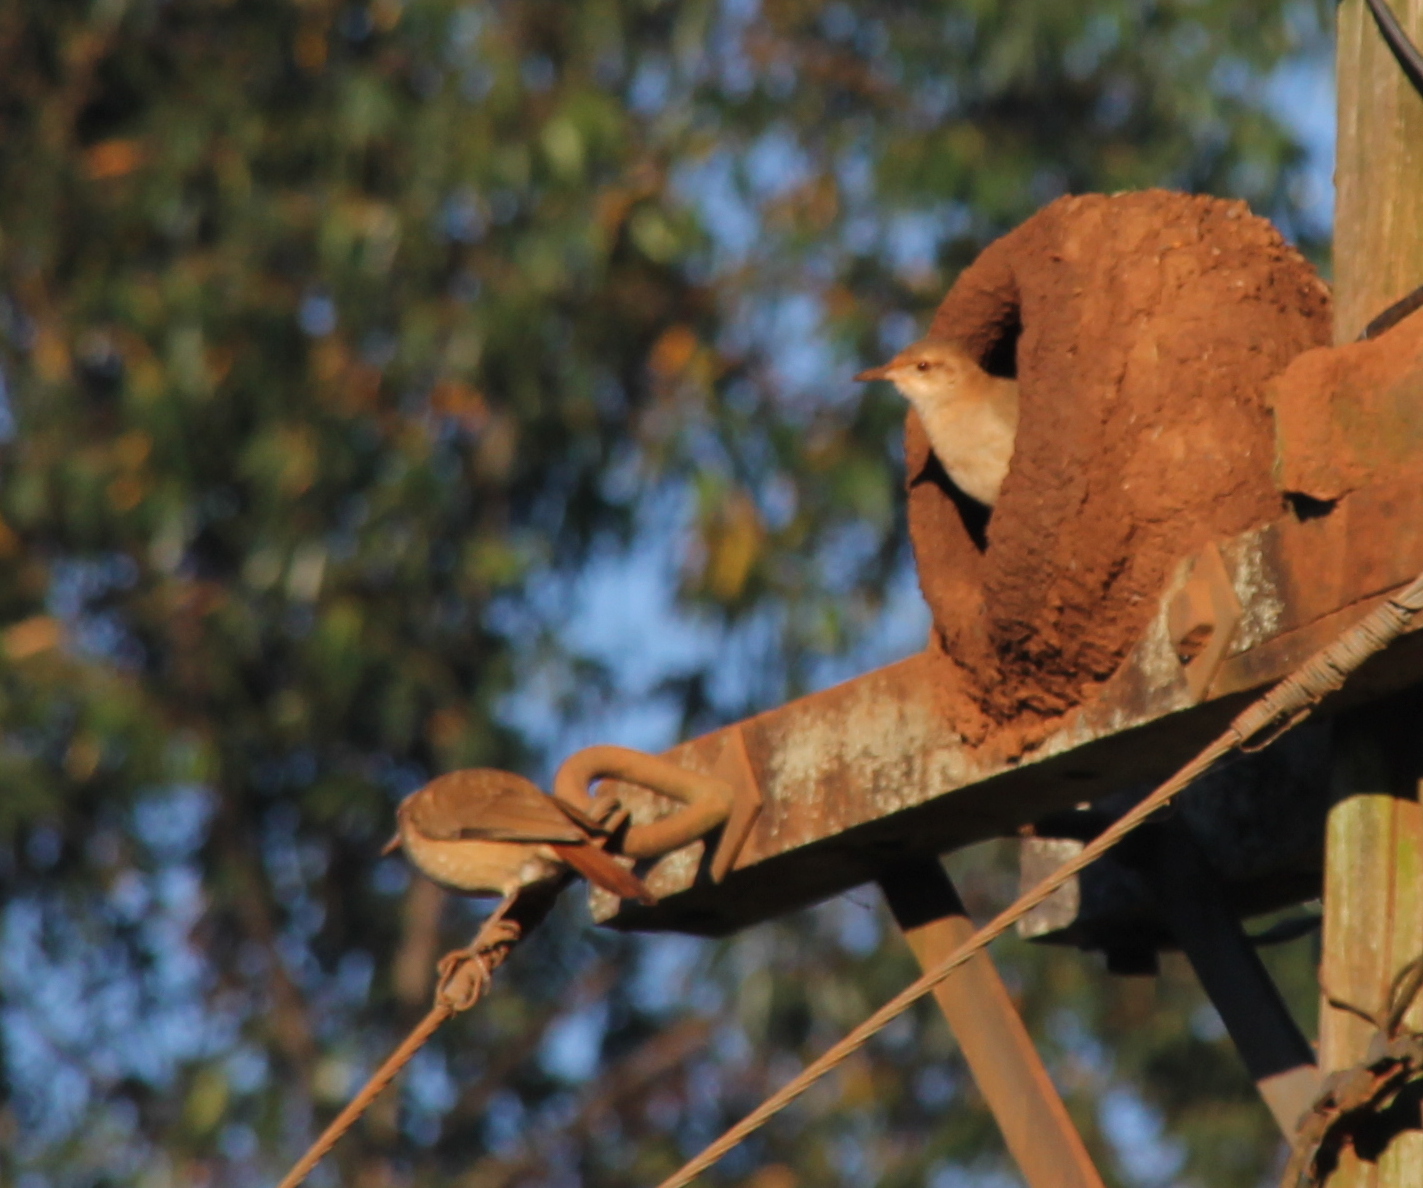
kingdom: Animalia
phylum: Chordata
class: Aves
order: Passeriformes
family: Furnariidae
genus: Furnarius
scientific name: Furnarius rufus
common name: Rufous hornero
